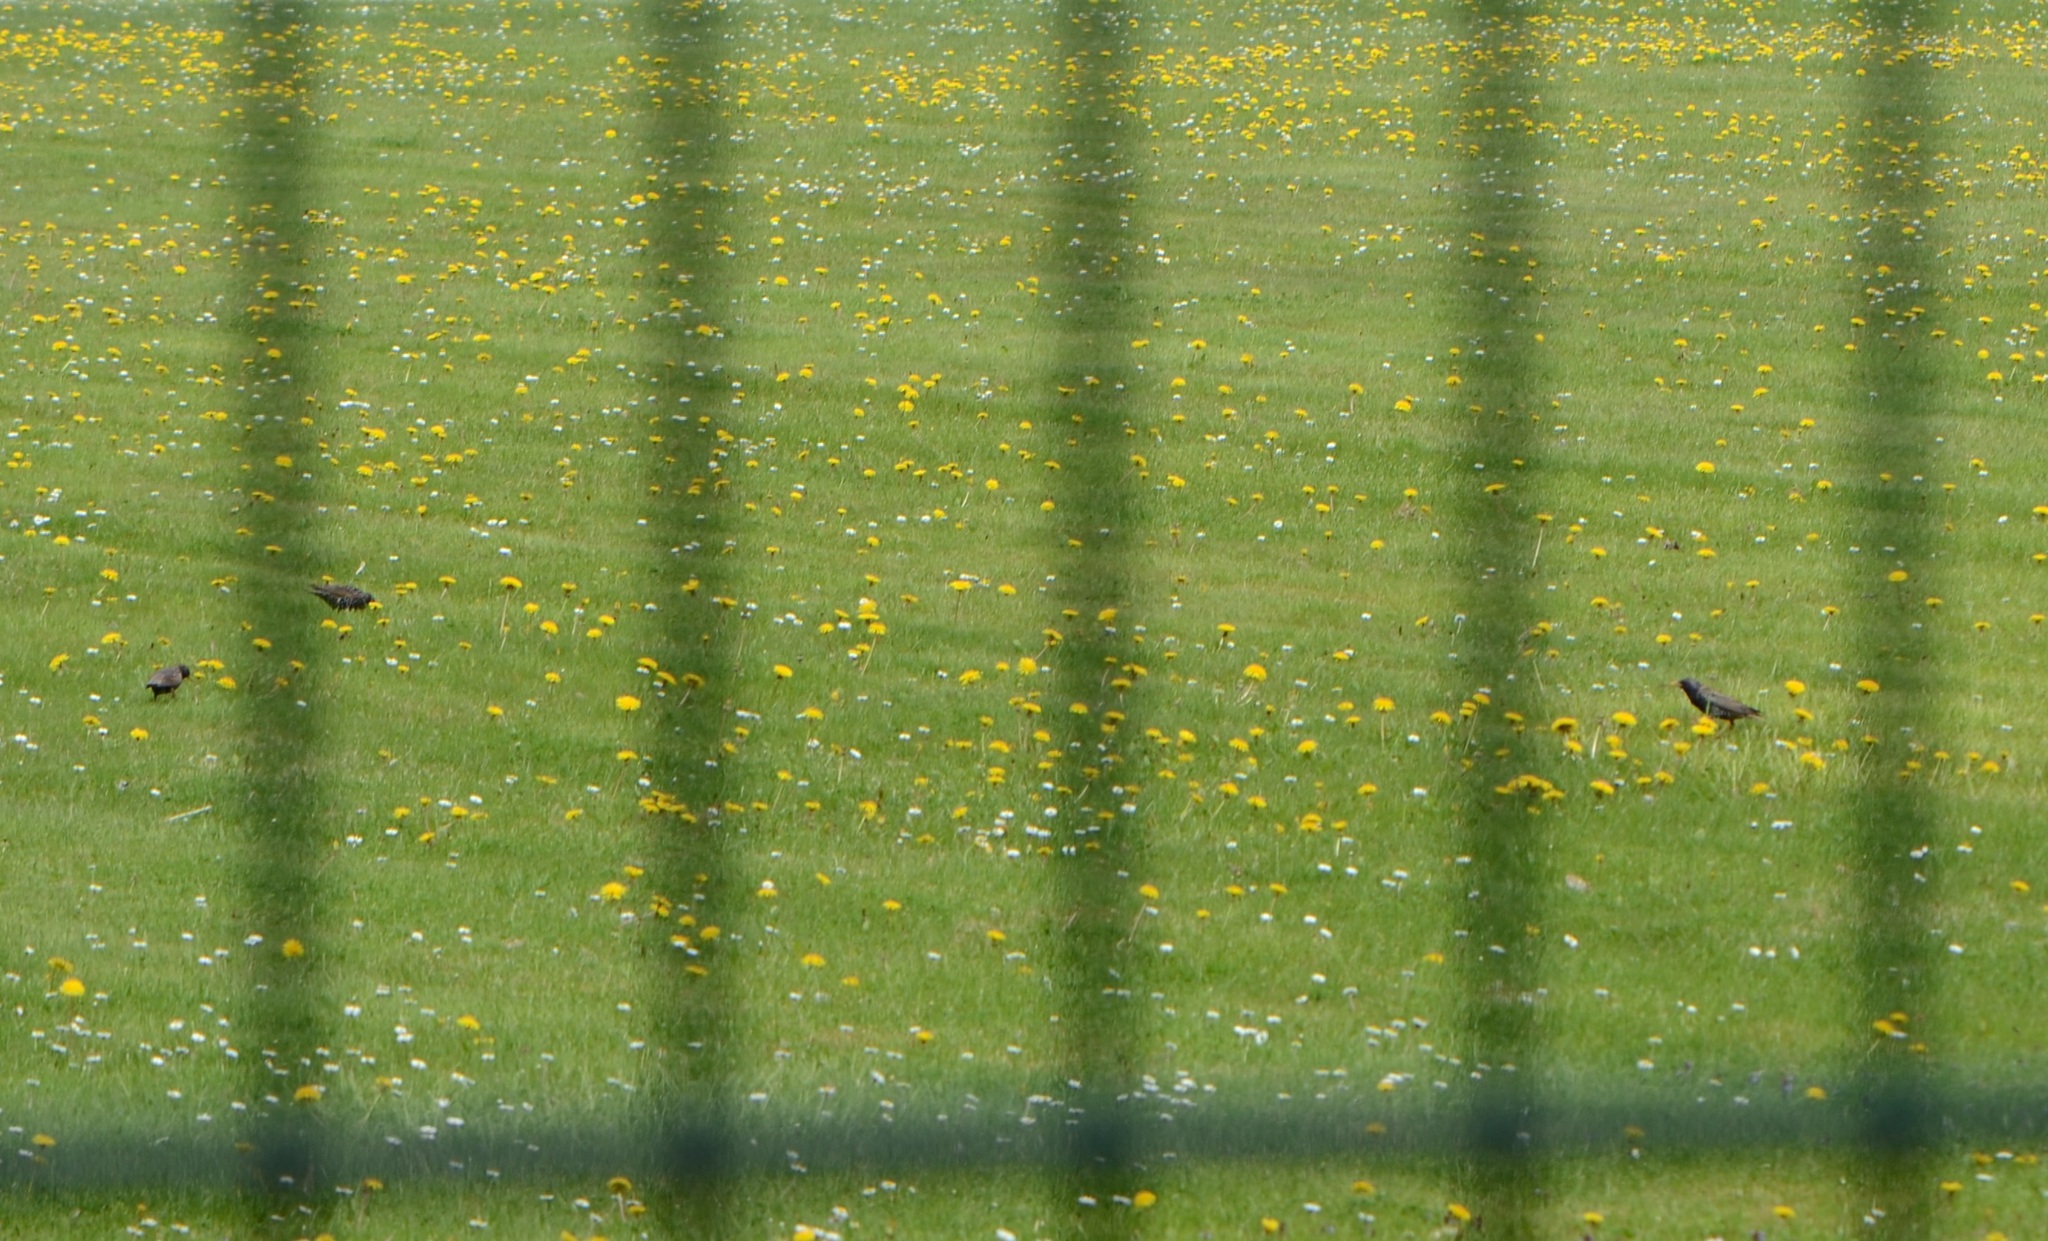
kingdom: Animalia
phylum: Chordata
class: Aves
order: Passeriformes
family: Sturnidae
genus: Sturnus
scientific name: Sturnus vulgaris
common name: Common starling
